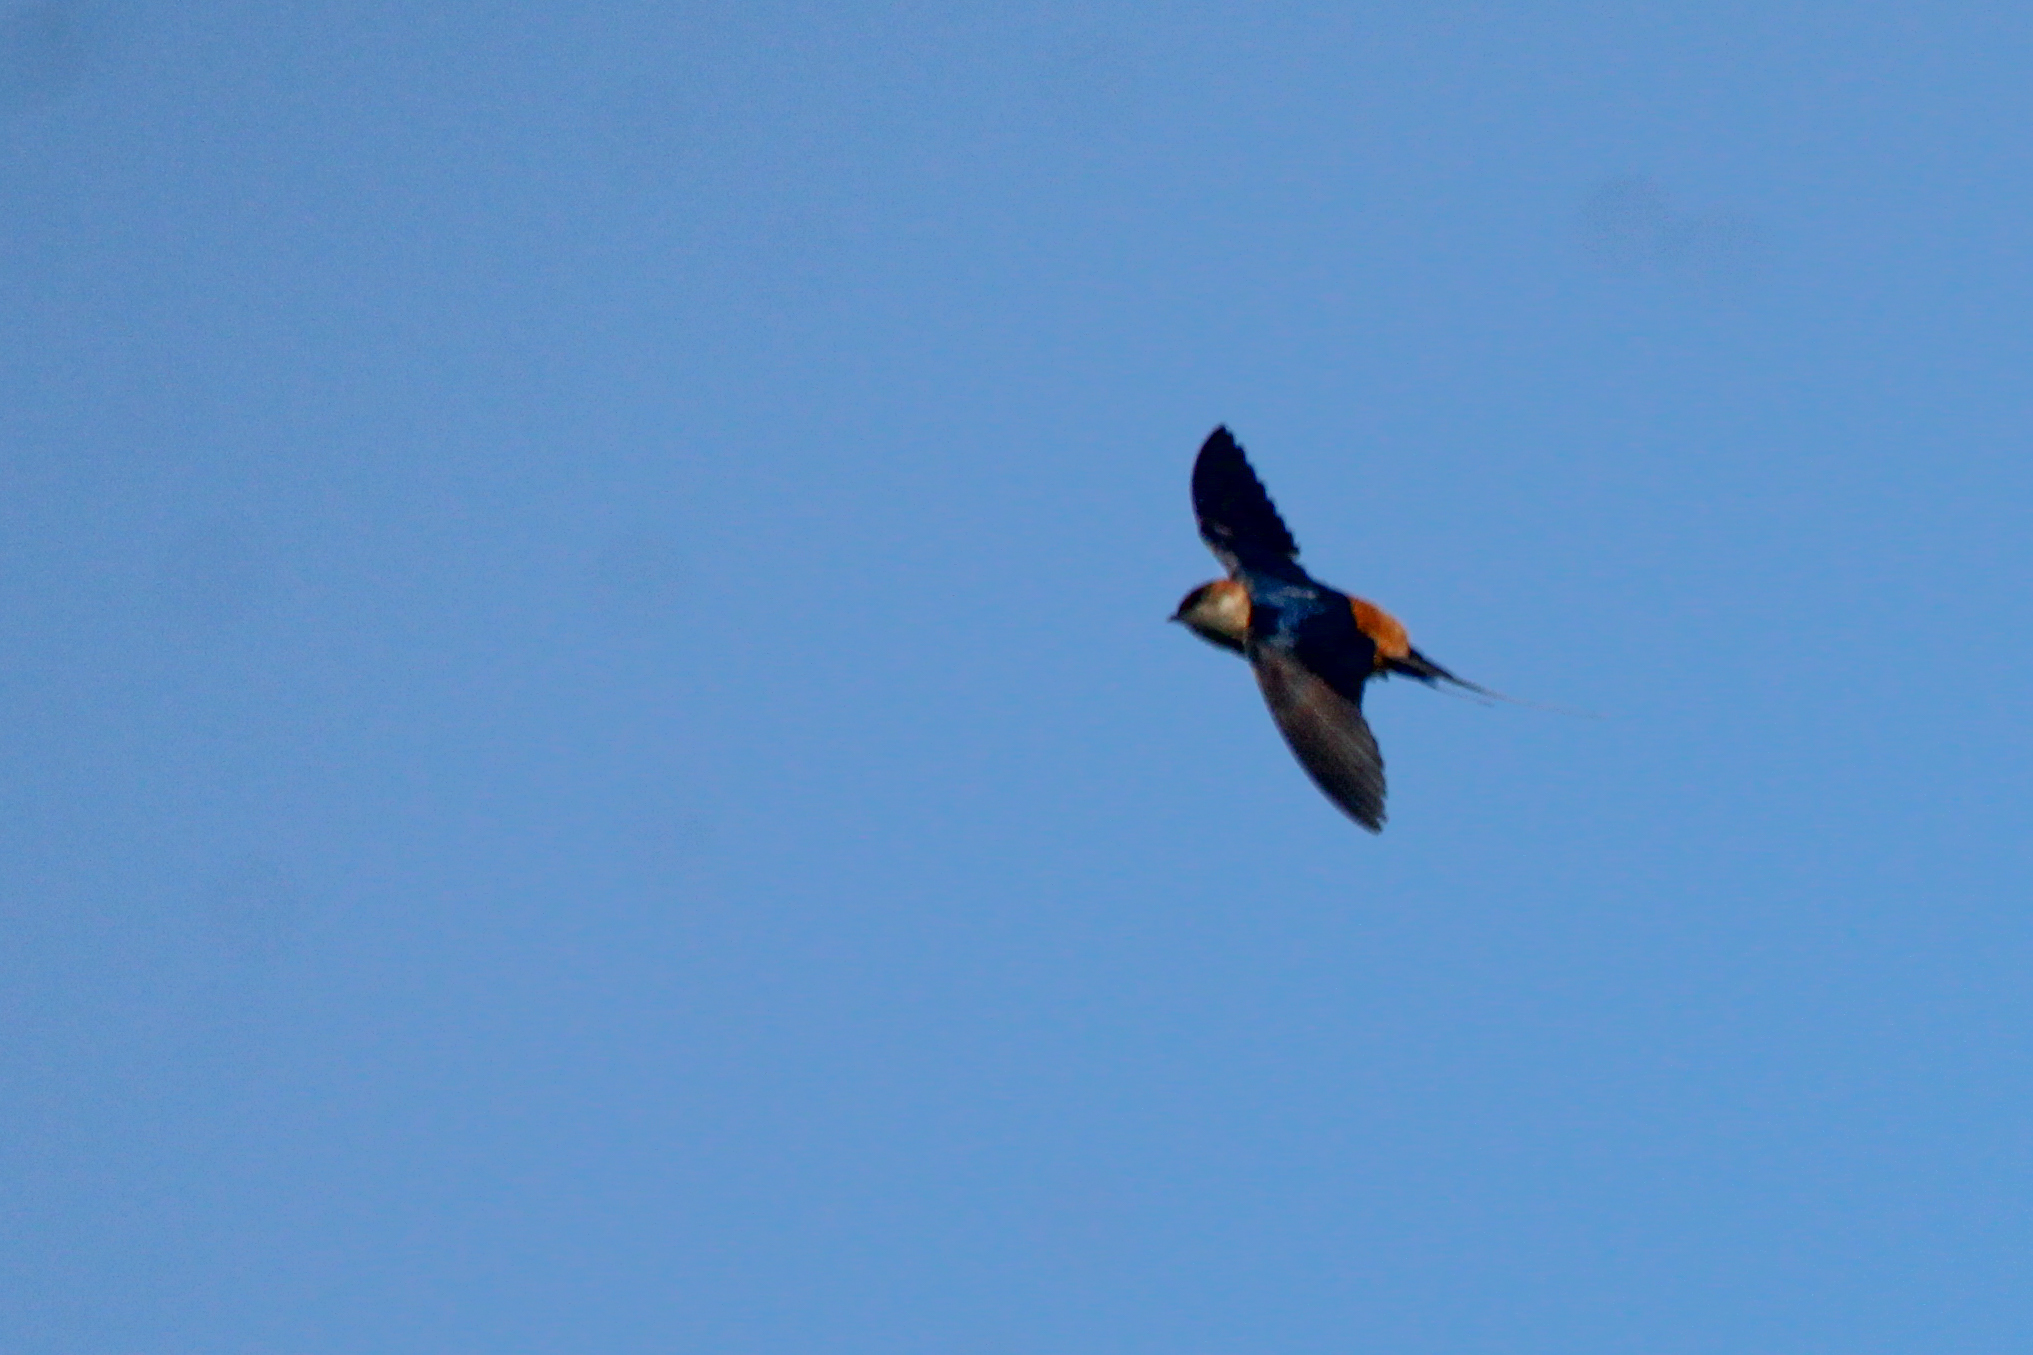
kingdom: Animalia
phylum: Chordata
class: Aves
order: Passeriformes
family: Hirundinidae
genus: Cecropis
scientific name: Cecropis daurica
